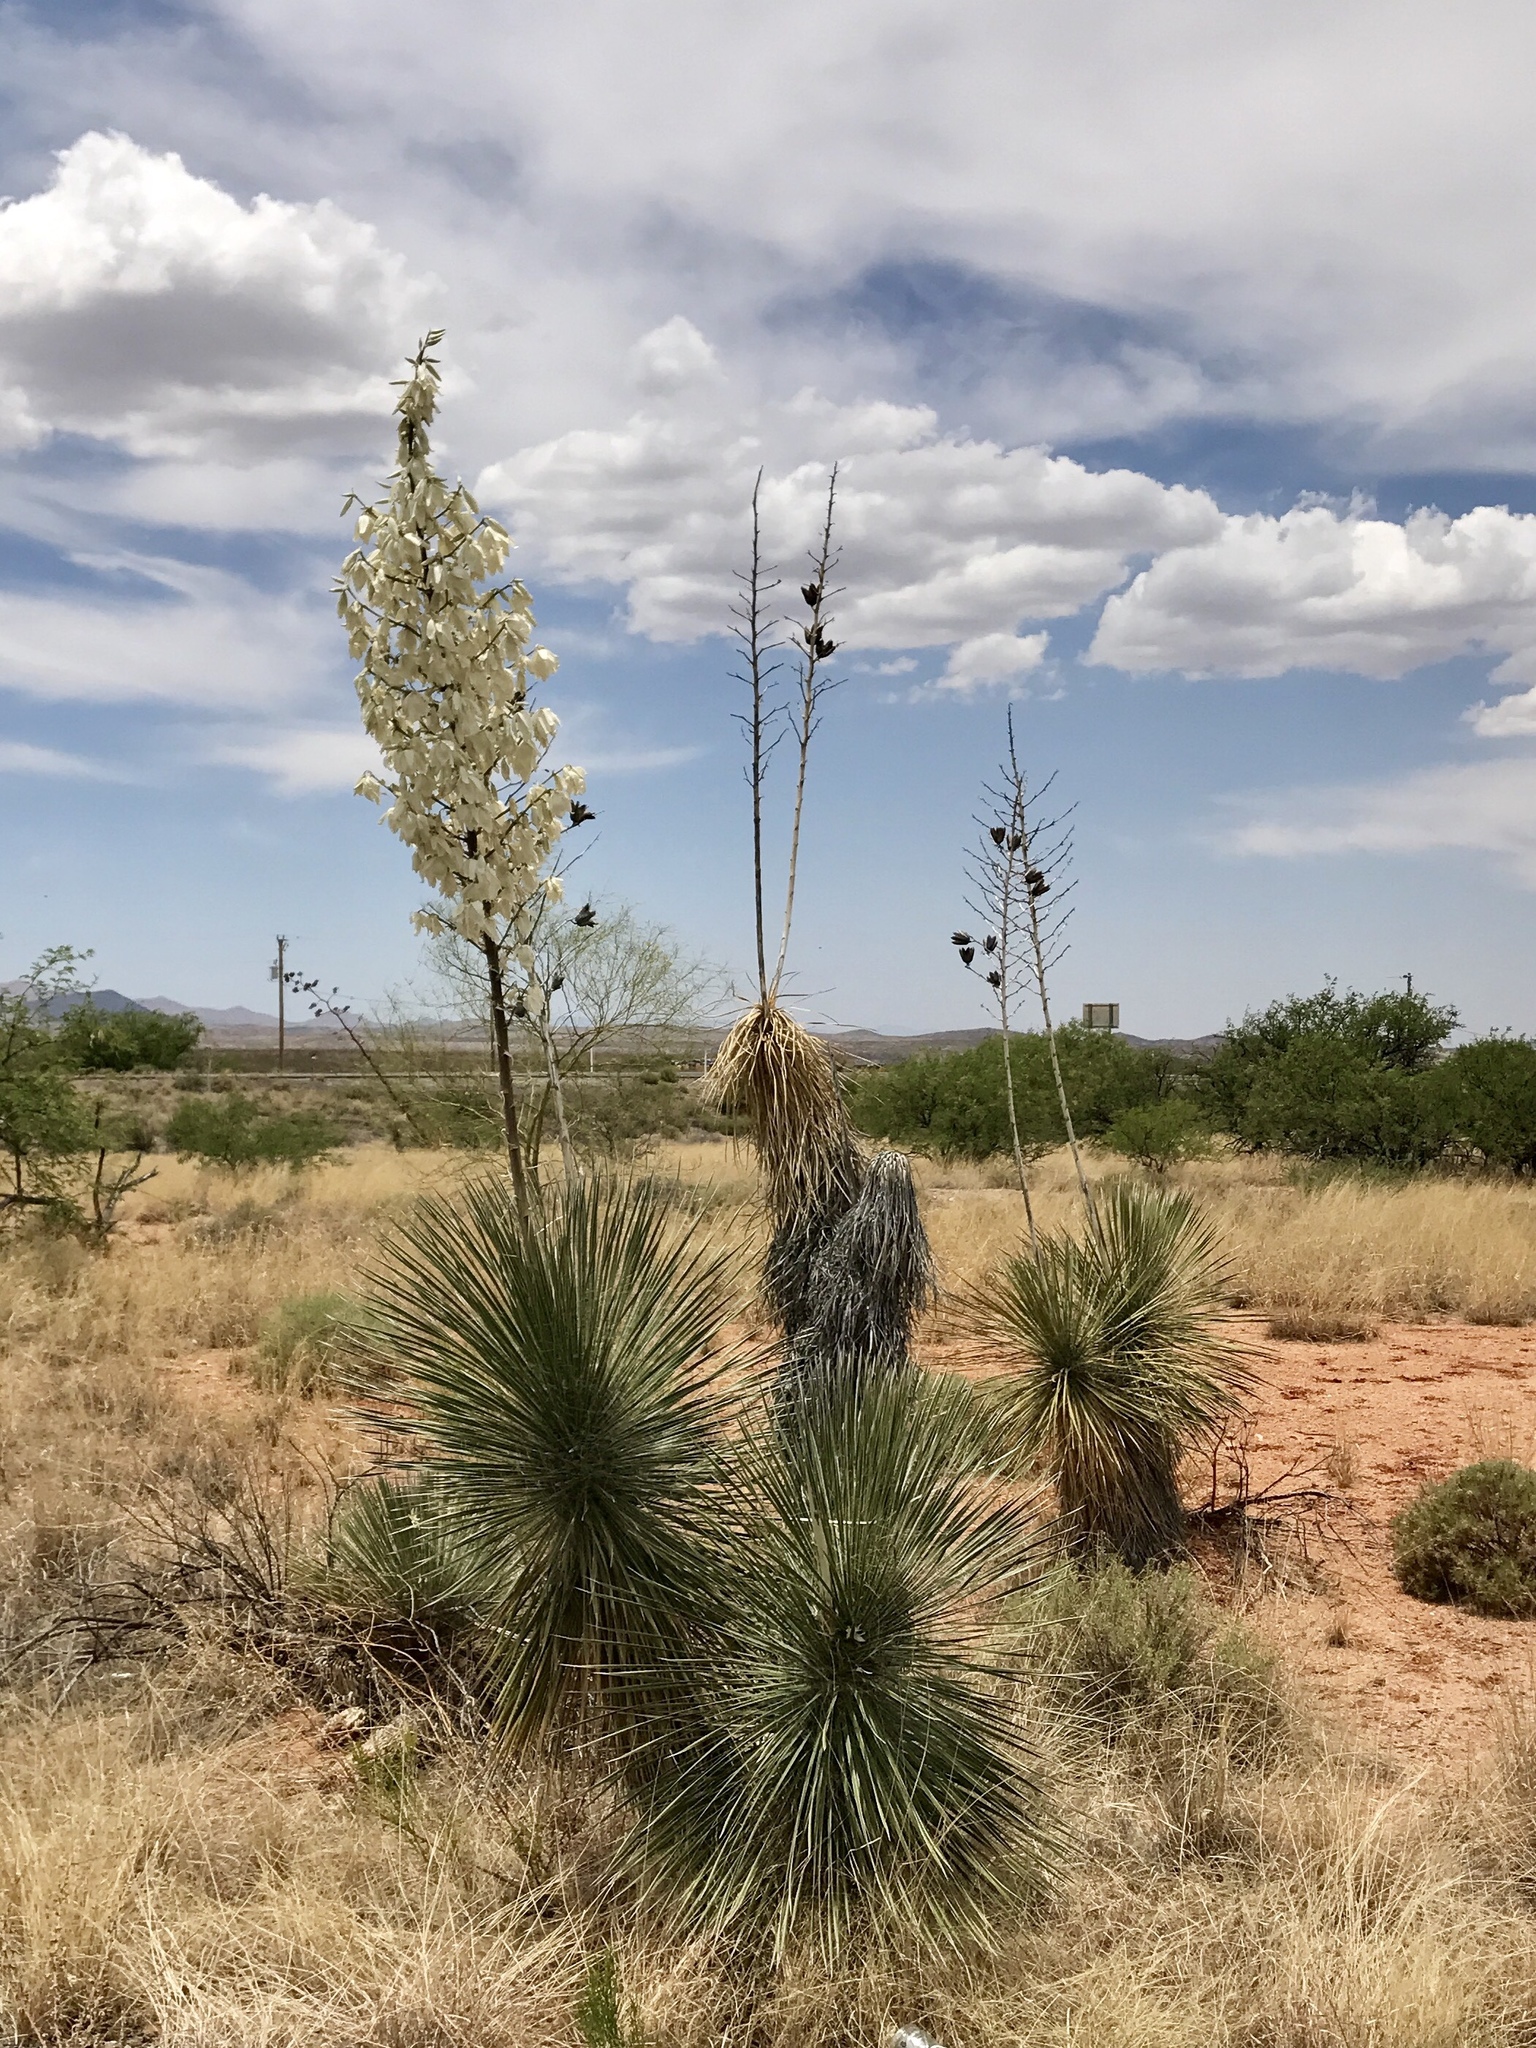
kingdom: Plantae
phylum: Tracheophyta
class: Liliopsida
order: Asparagales
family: Asparagaceae
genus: Yucca
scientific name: Yucca elata
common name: Palmella
